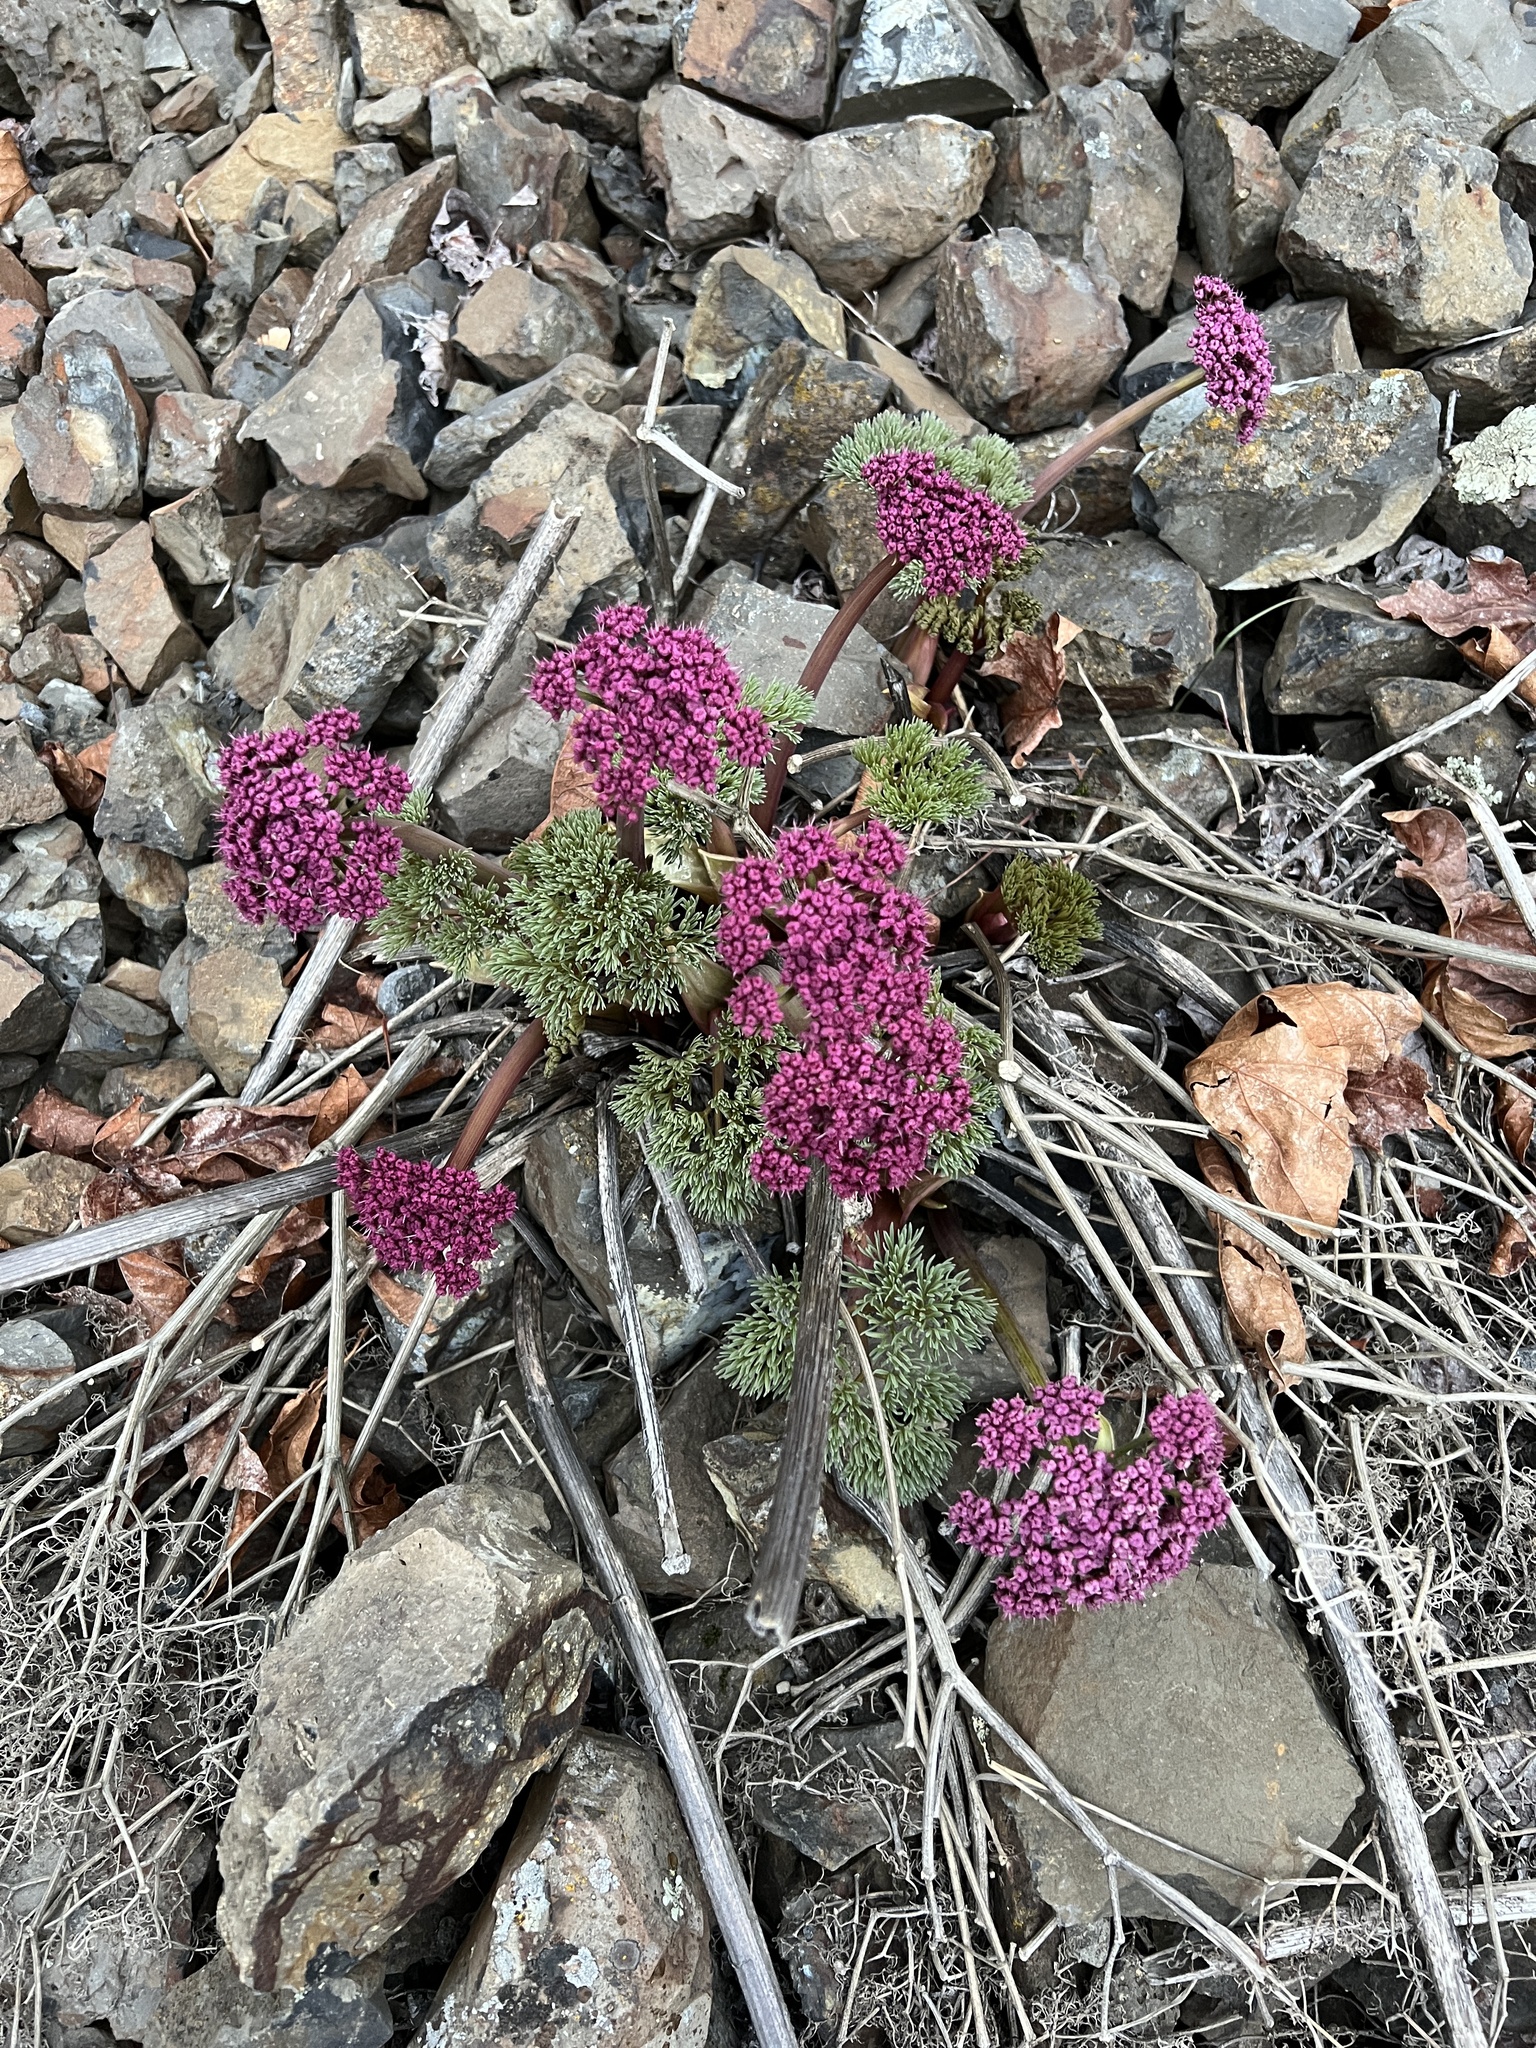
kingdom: Plantae
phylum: Tracheophyta
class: Magnoliopsida
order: Apiales
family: Apiaceae
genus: Lomatium
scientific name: Lomatium columbianum
